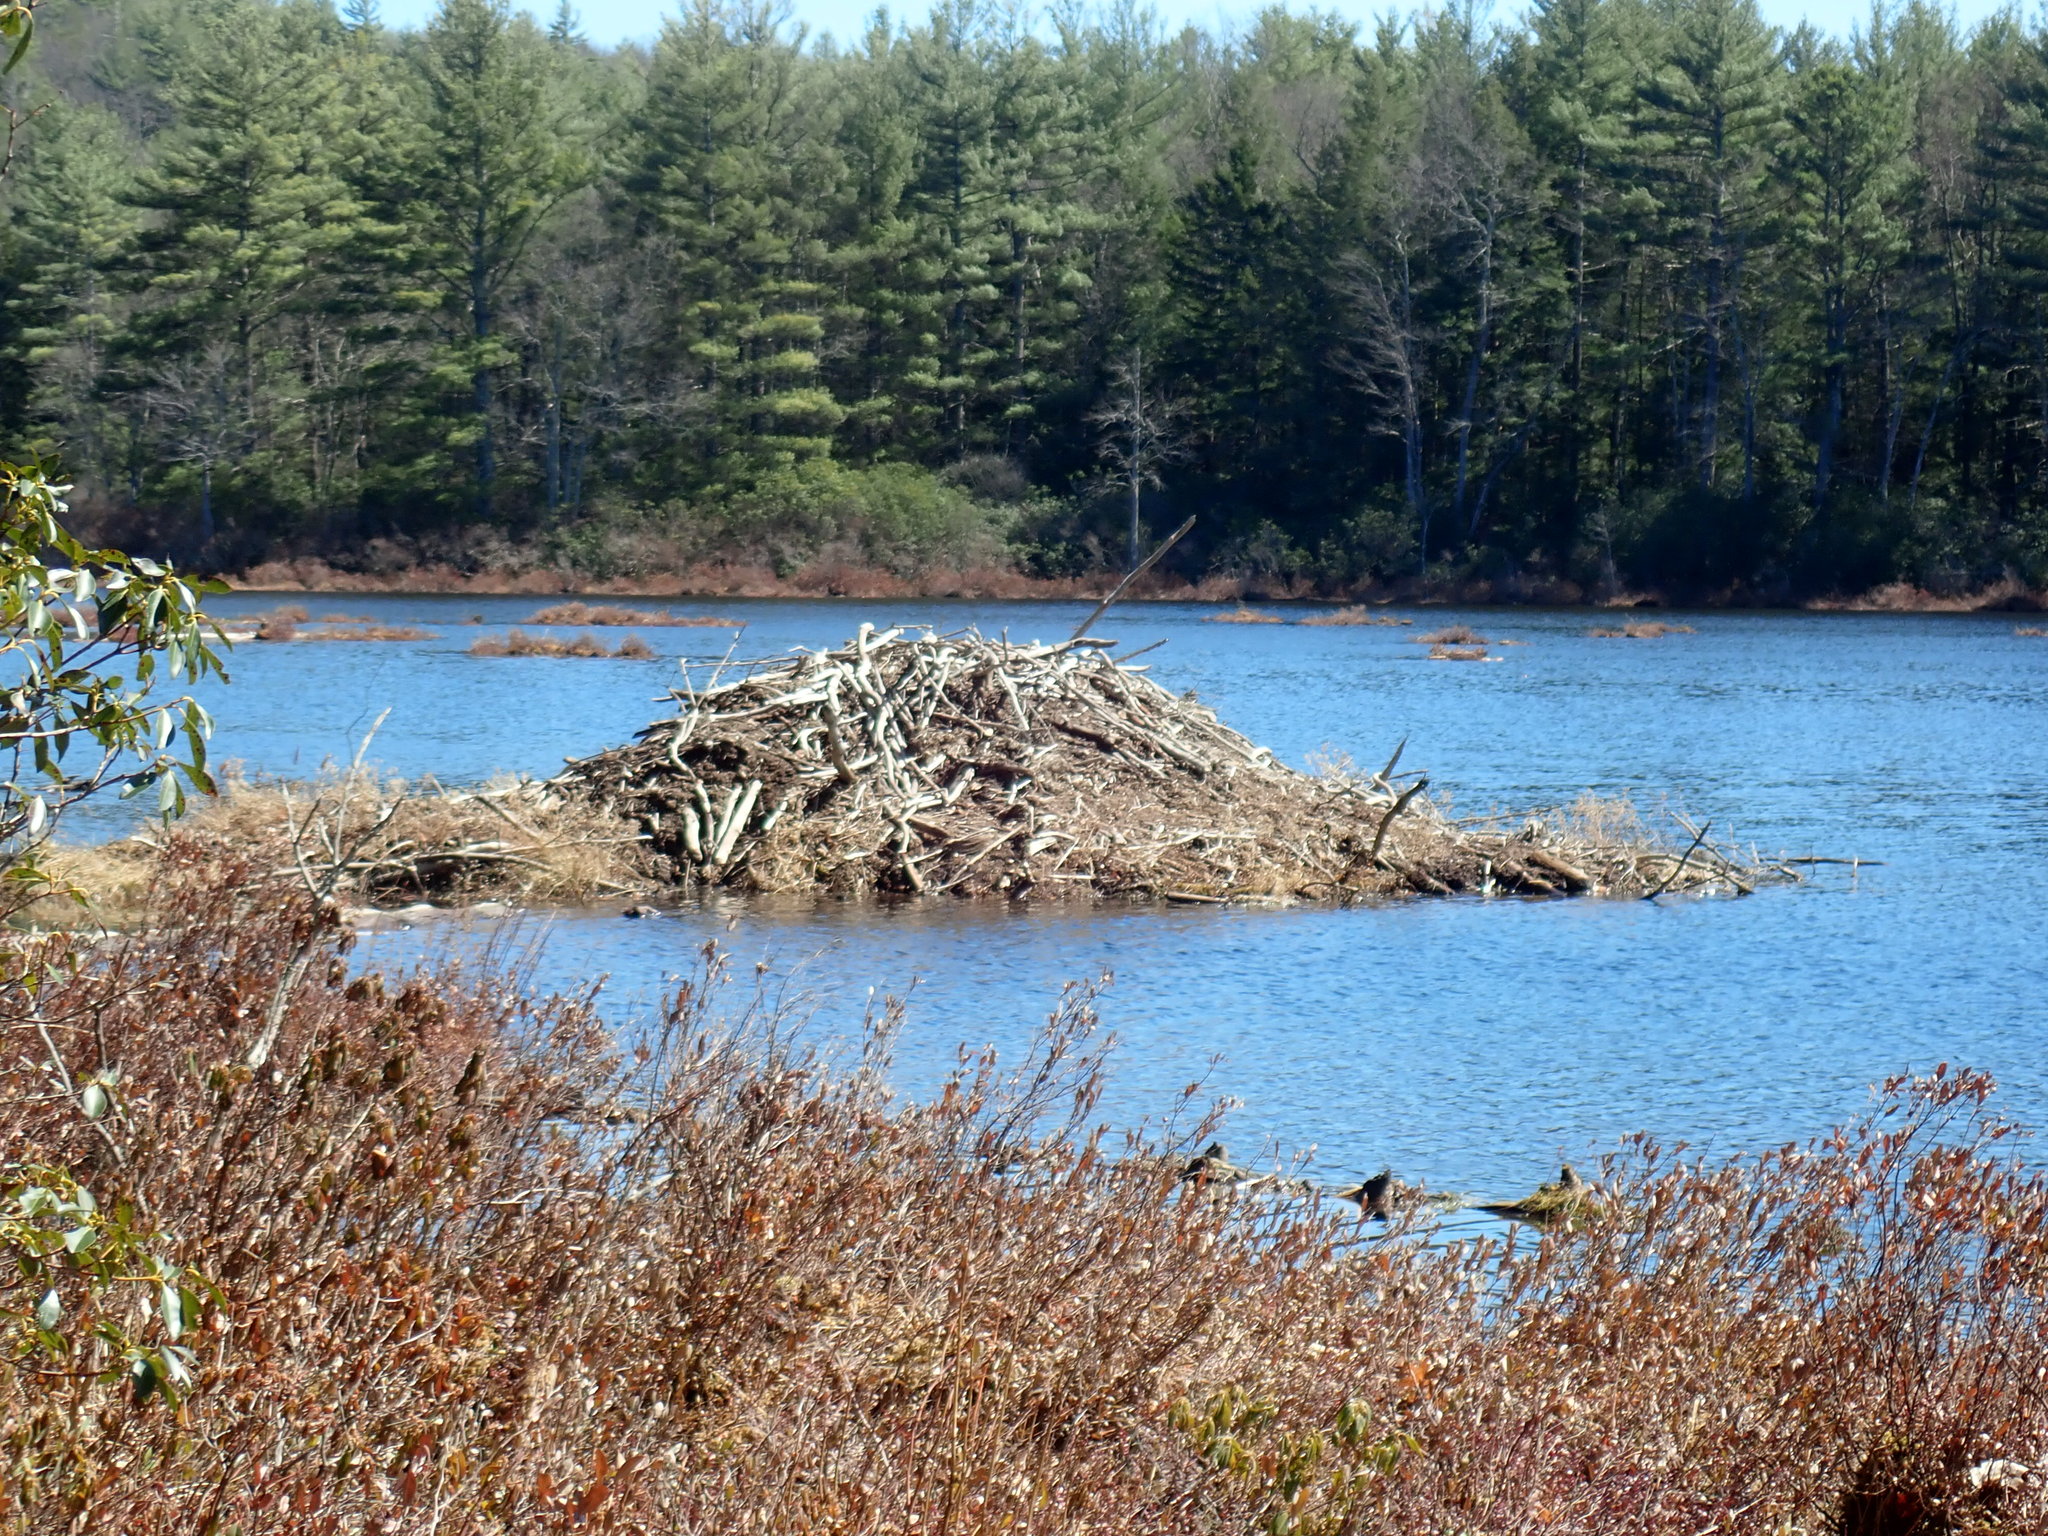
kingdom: Animalia
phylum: Chordata
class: Mammalia
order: Rodentia
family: Castoridae
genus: Castor
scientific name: Castor canadensis
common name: American beaver
